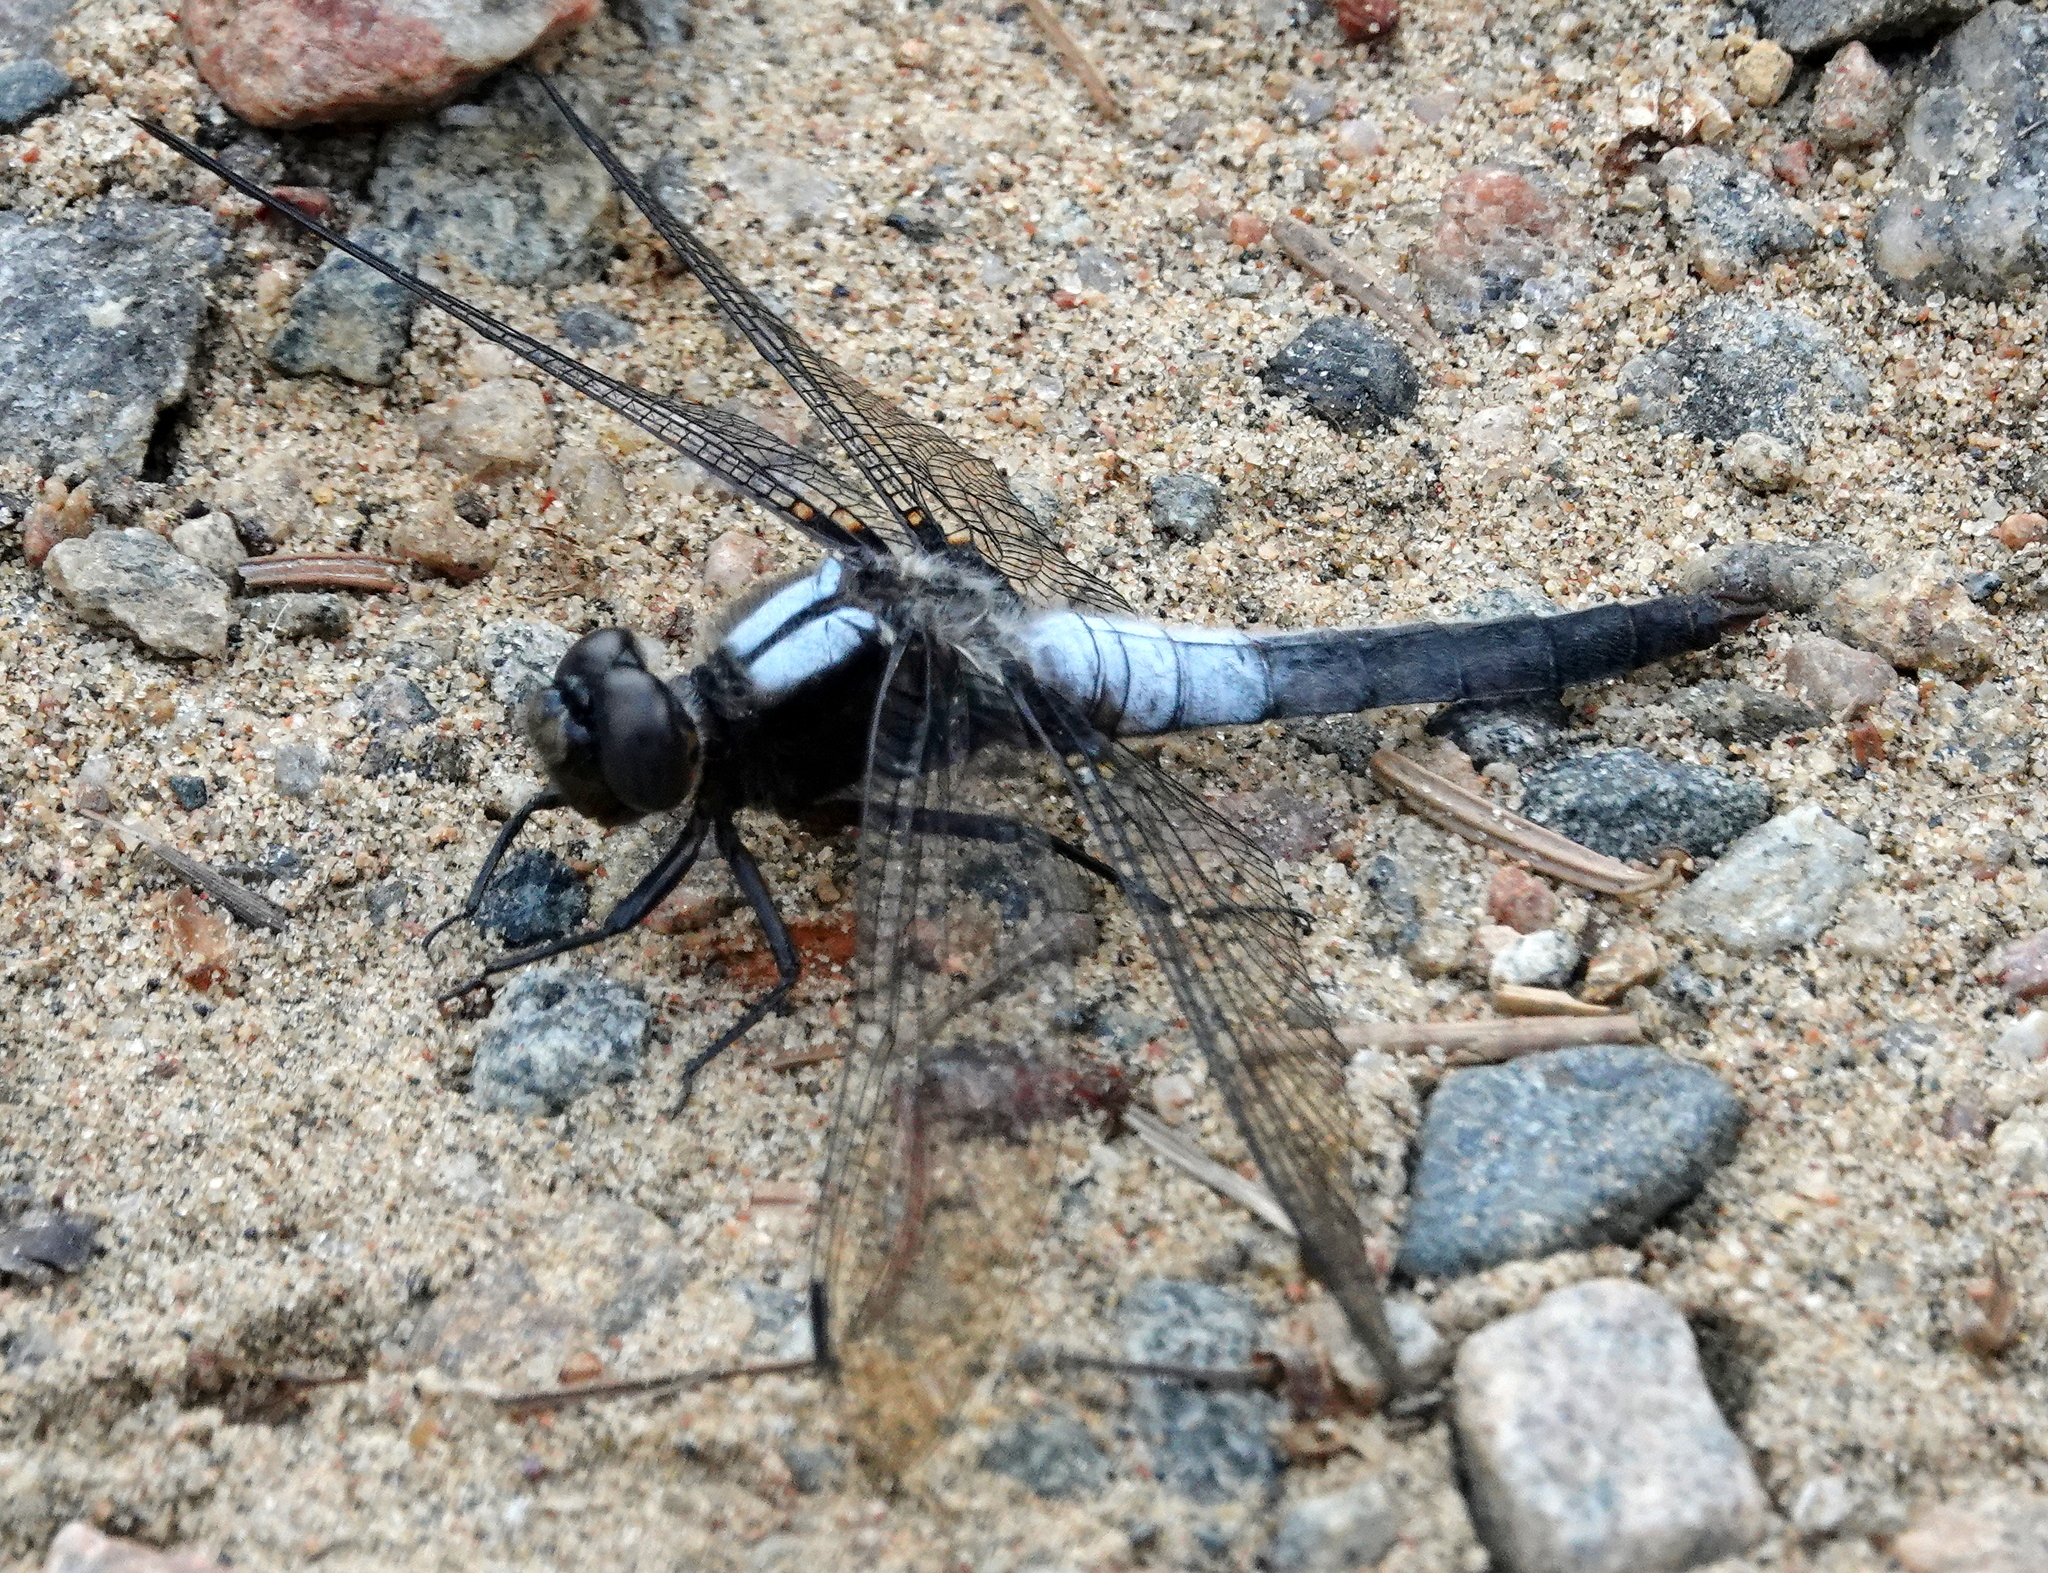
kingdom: Animalia
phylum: Arthropoda
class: Insecta
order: Odonata
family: Libellulidae
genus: Ladona
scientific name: Ladona julia
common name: Chalk-fronted corporal
